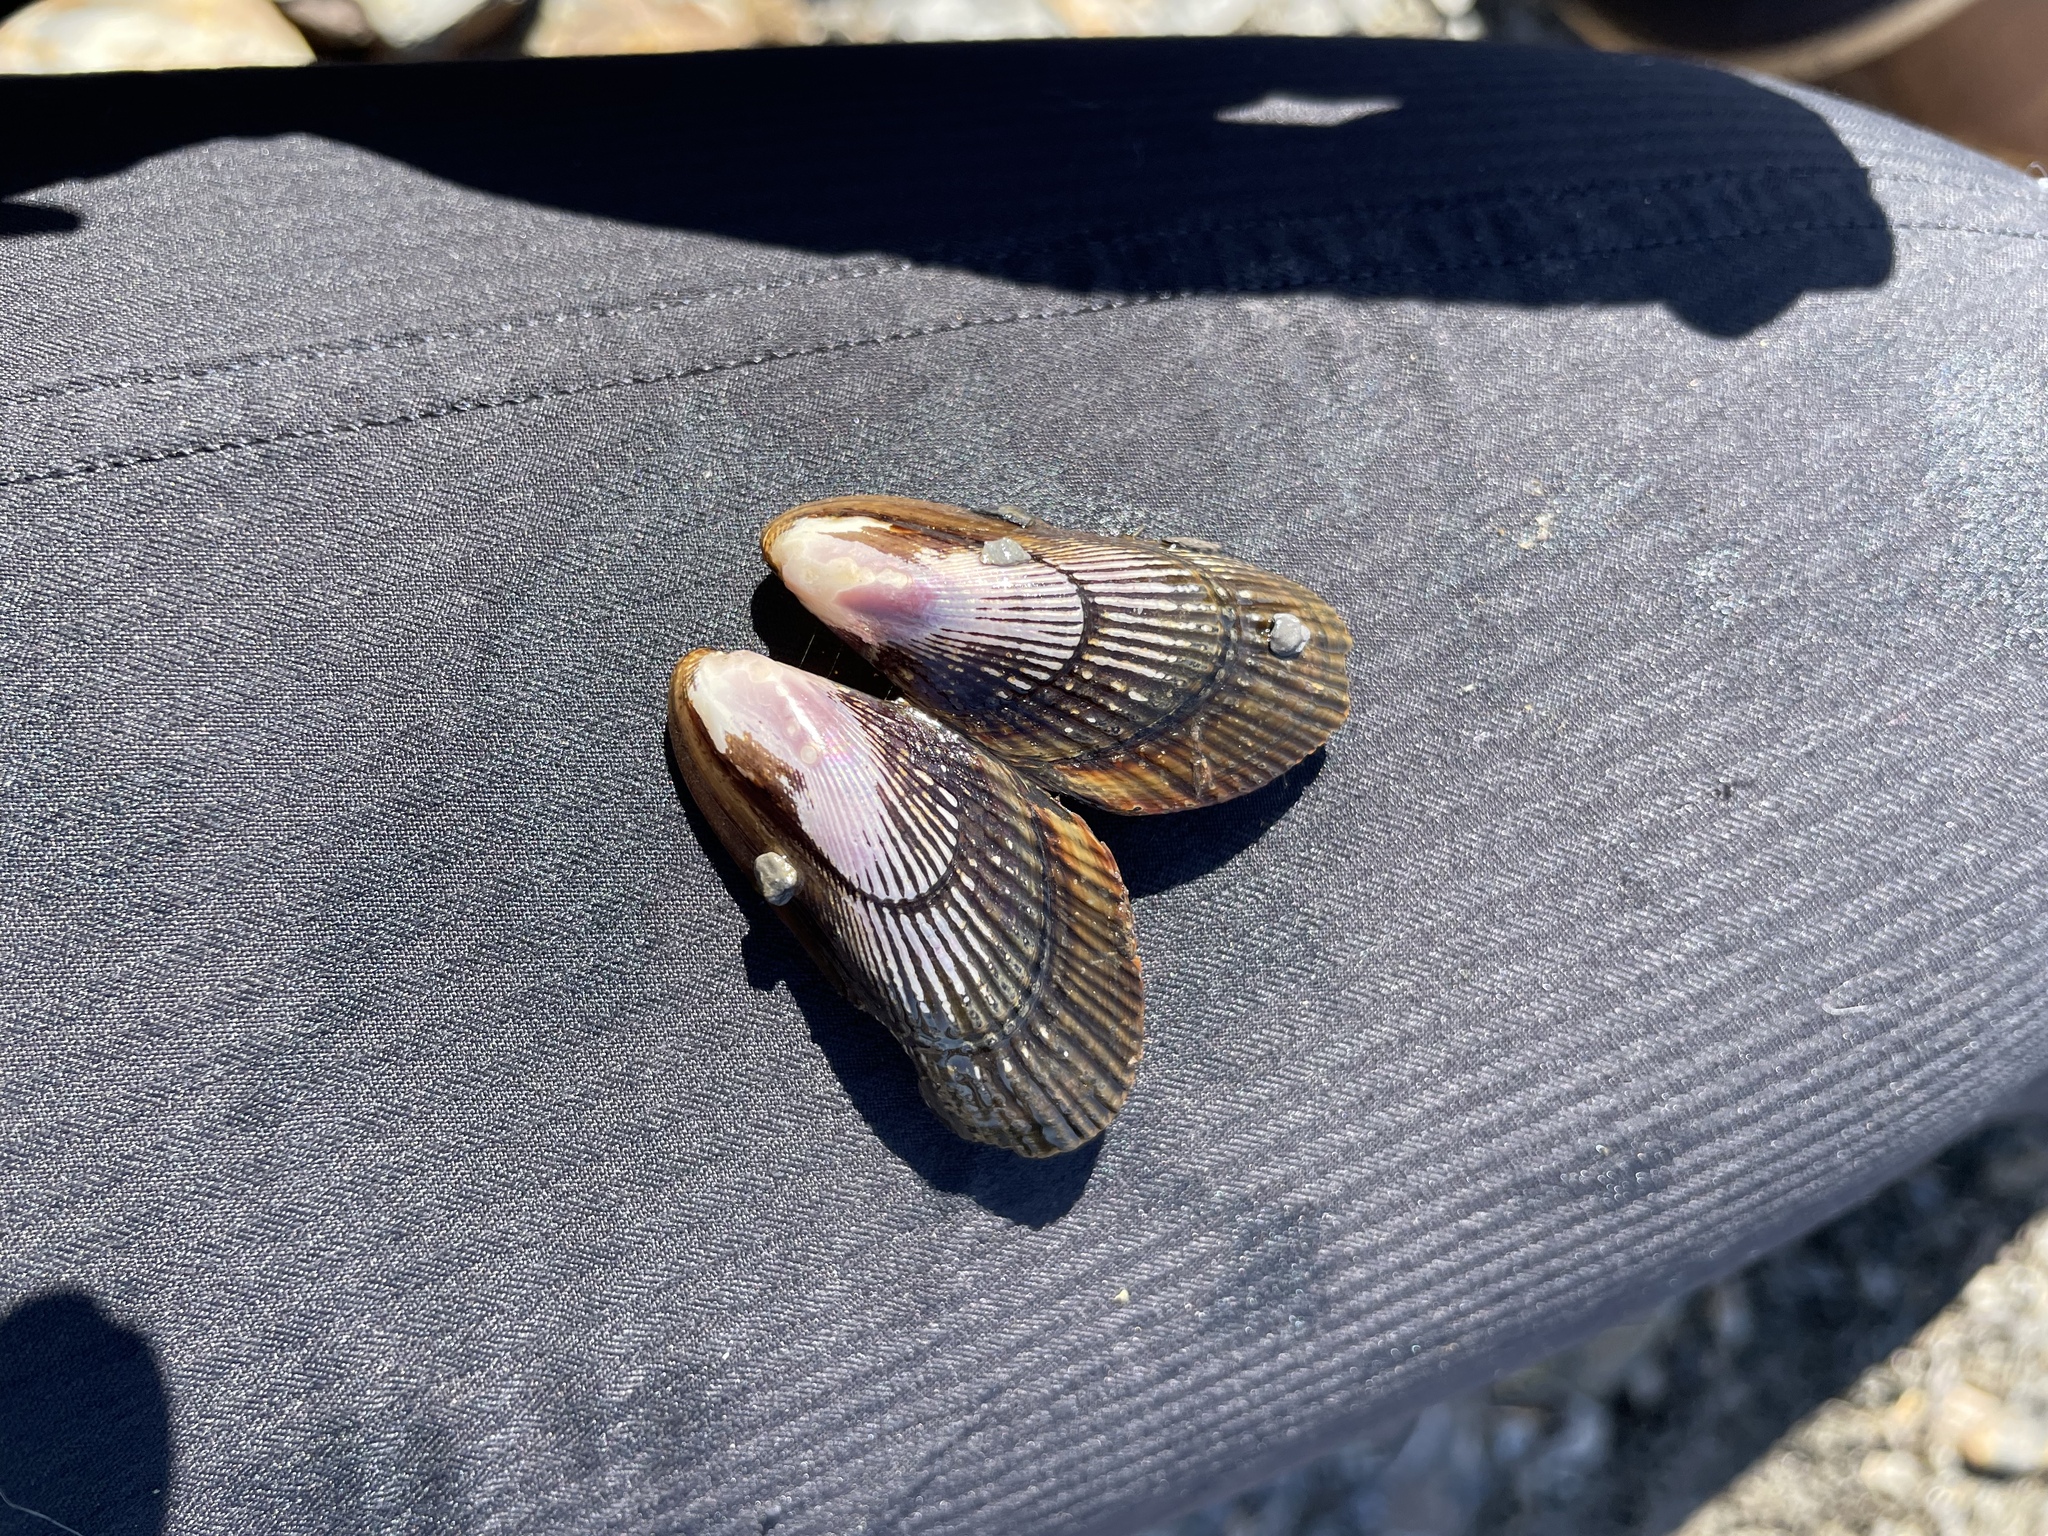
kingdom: Animalia
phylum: Mollusca
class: Bivalvia
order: Mytilida
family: Mytilidae
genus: Geukensia
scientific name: Geukensia demissa
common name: Ribbed mussel
